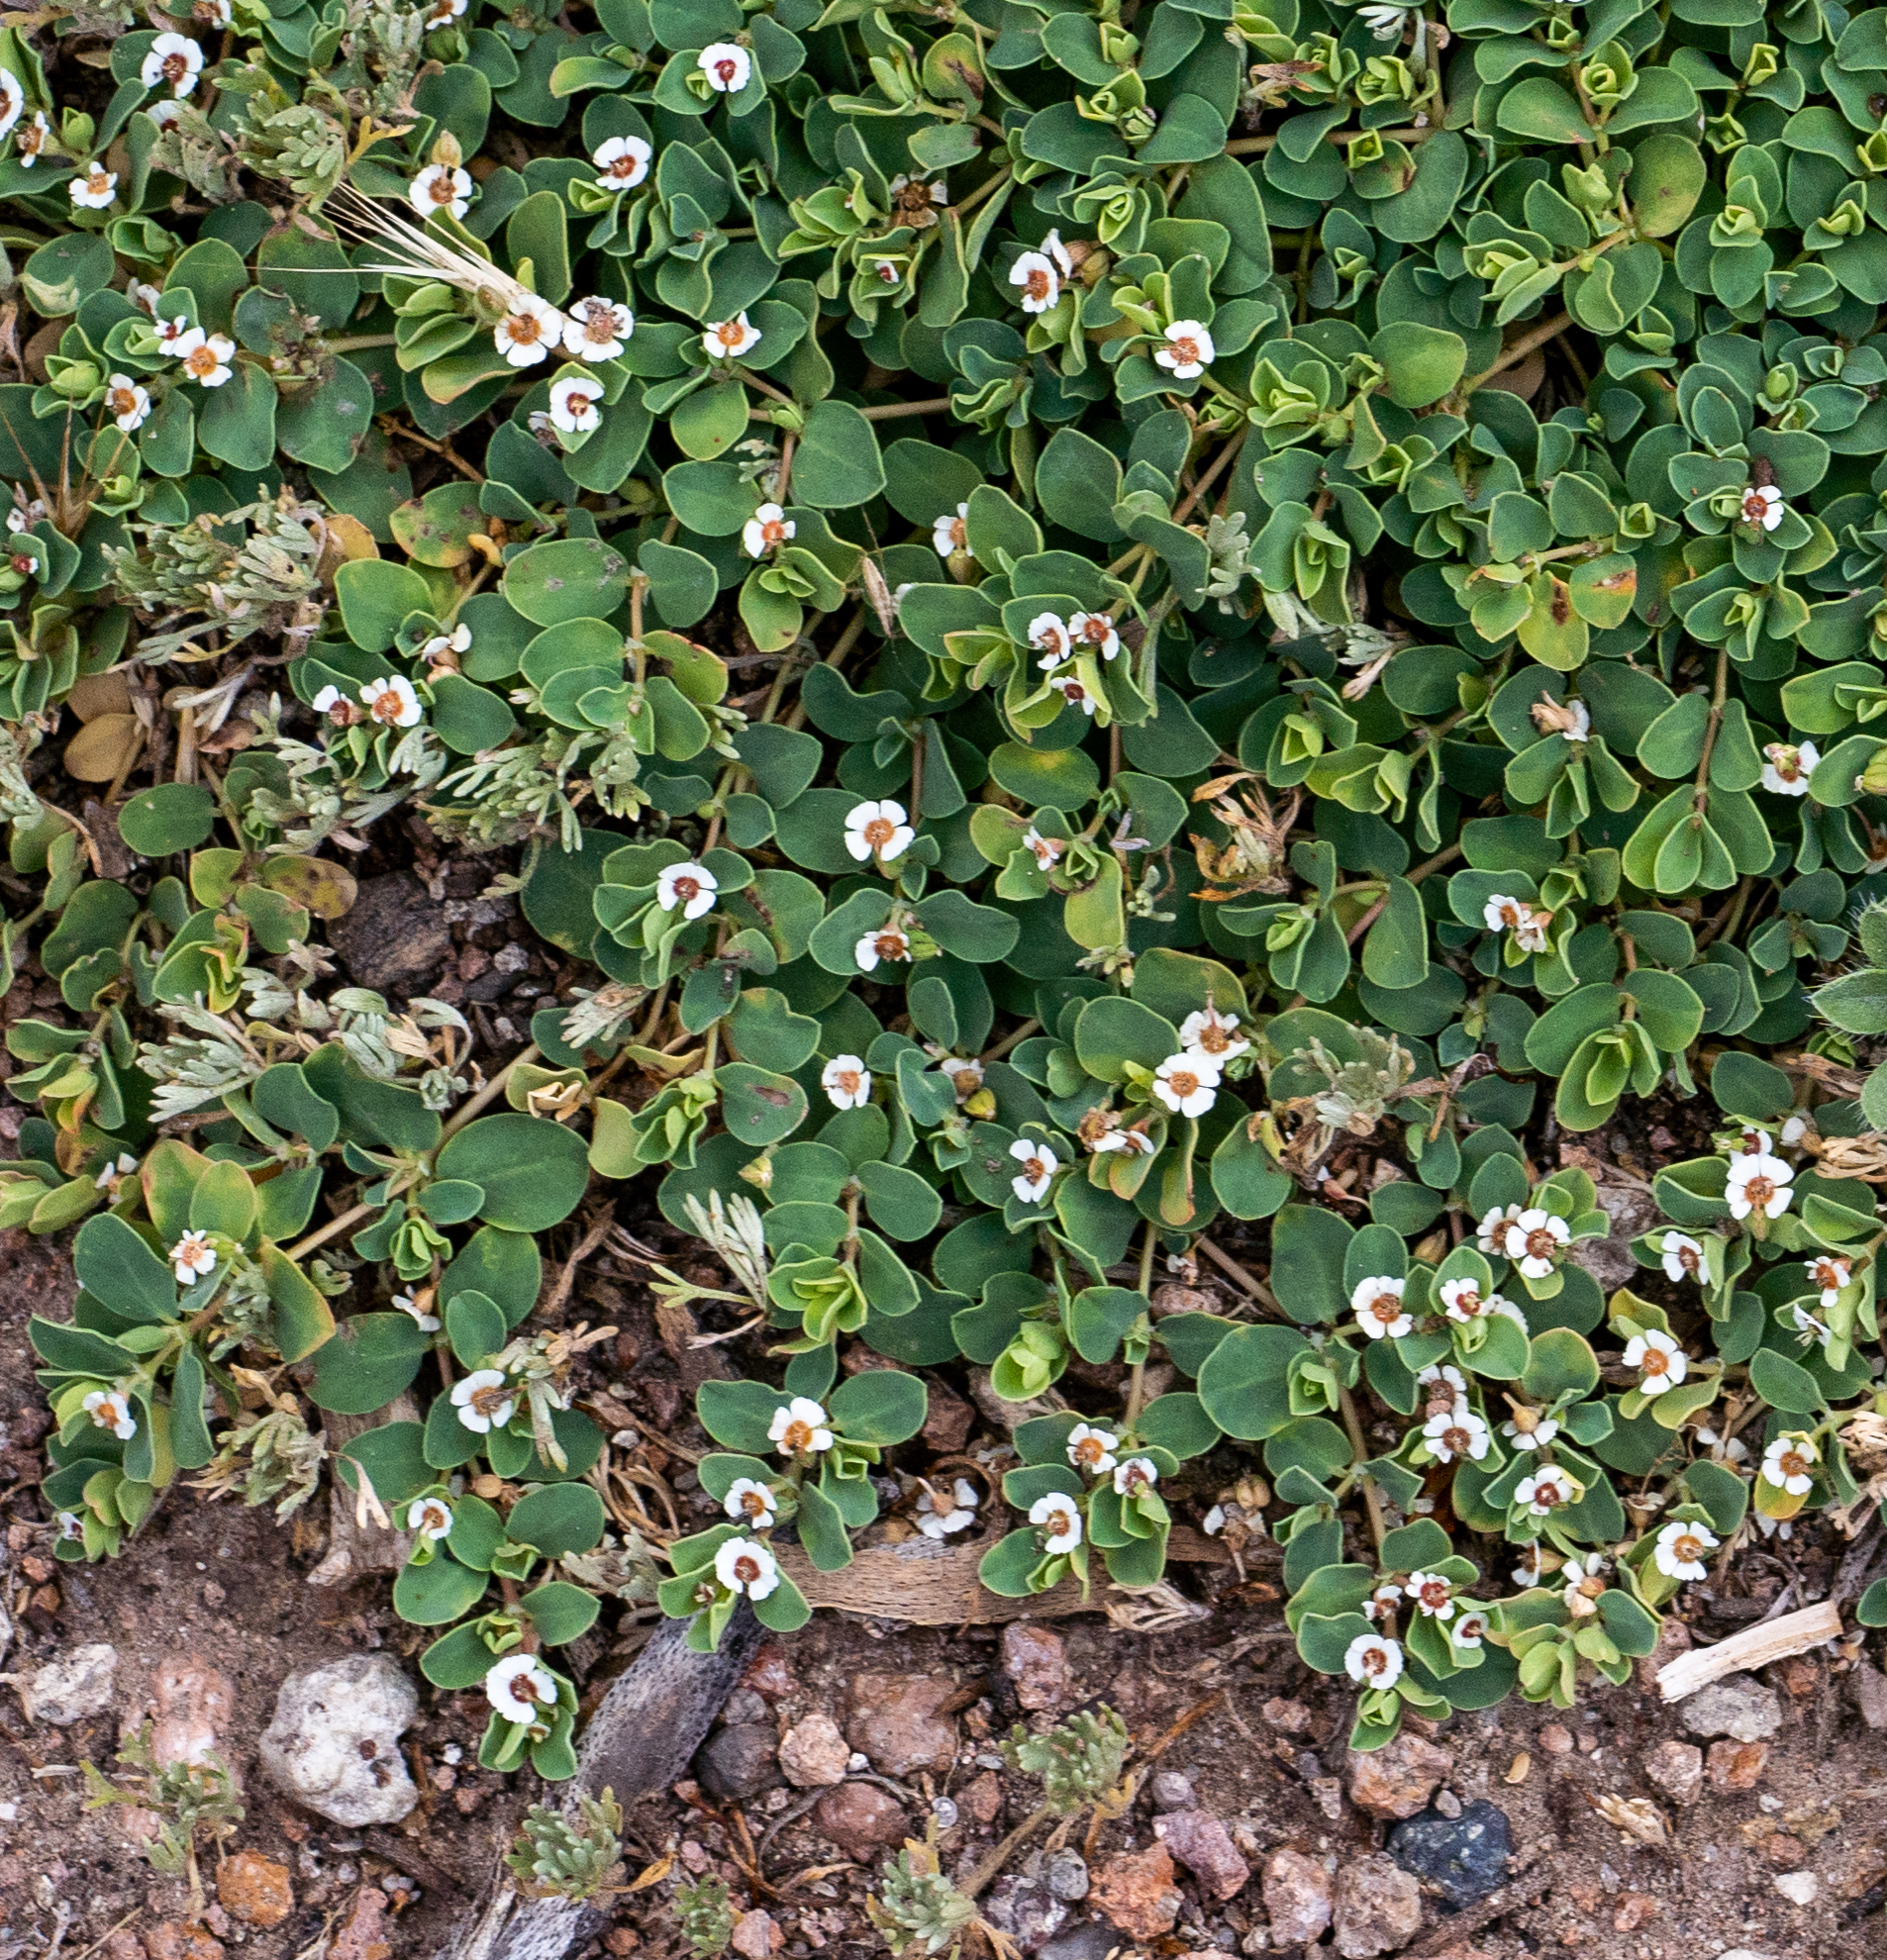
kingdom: Plantae
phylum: Tracheophyta
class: Magnoliopsida
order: Malpighiales
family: Euphorbiaceae
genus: Euphorbia
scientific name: Euphorbia albomarginata
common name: Whitemargin sandmat
